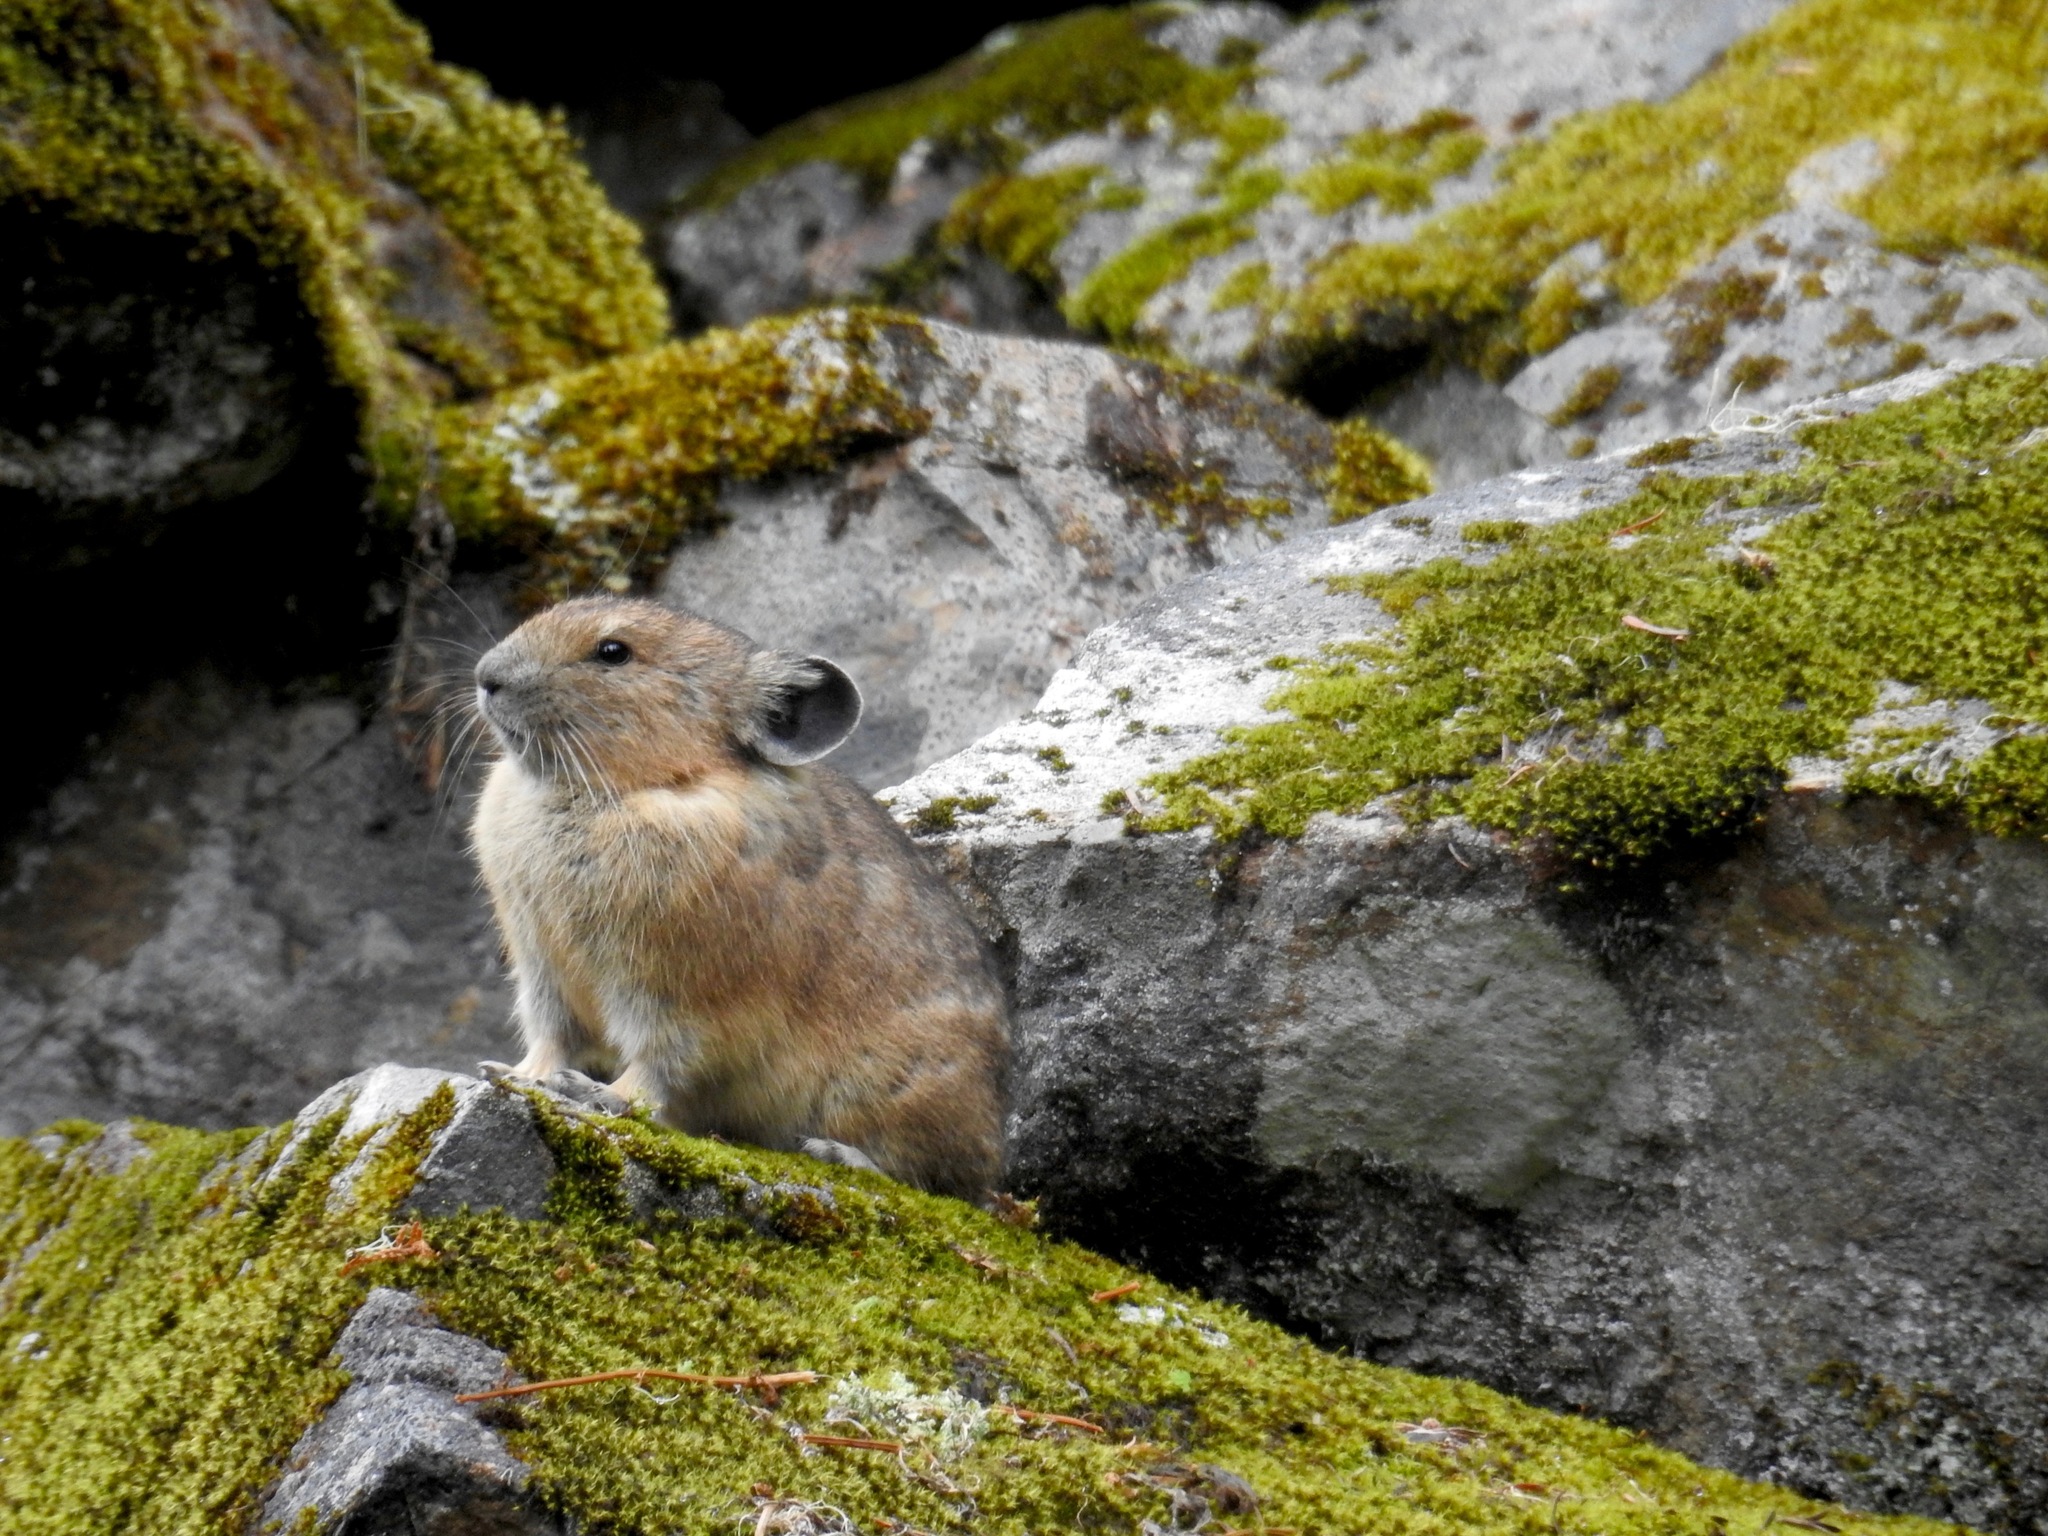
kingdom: Animalia
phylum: Chordata
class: Mammalia
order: Lagomorpha
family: Ochotonidae
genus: Ochotona
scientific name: Ochotona princeps
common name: American pika
